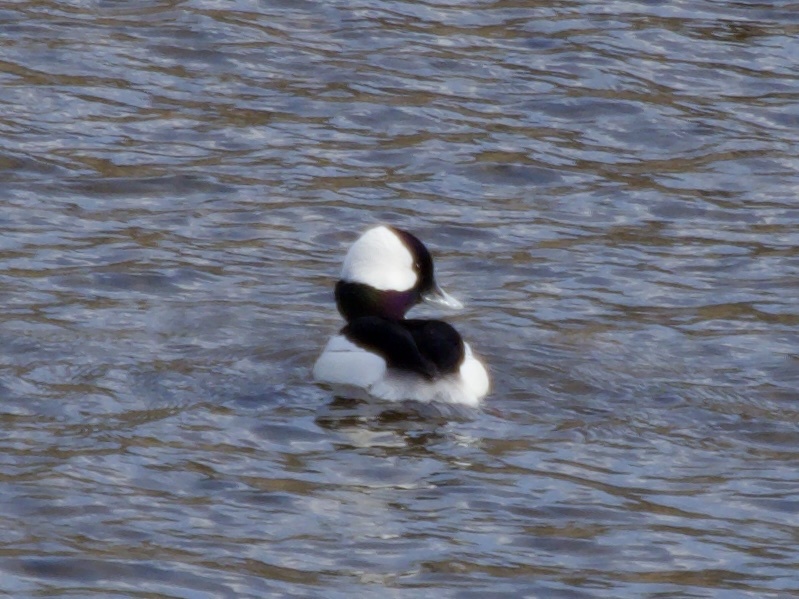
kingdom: Animalia
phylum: Chordata
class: Aves
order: Anseriformes
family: Anatidae
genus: Bucephala
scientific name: Bucephala albeola
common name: Bufflehead
